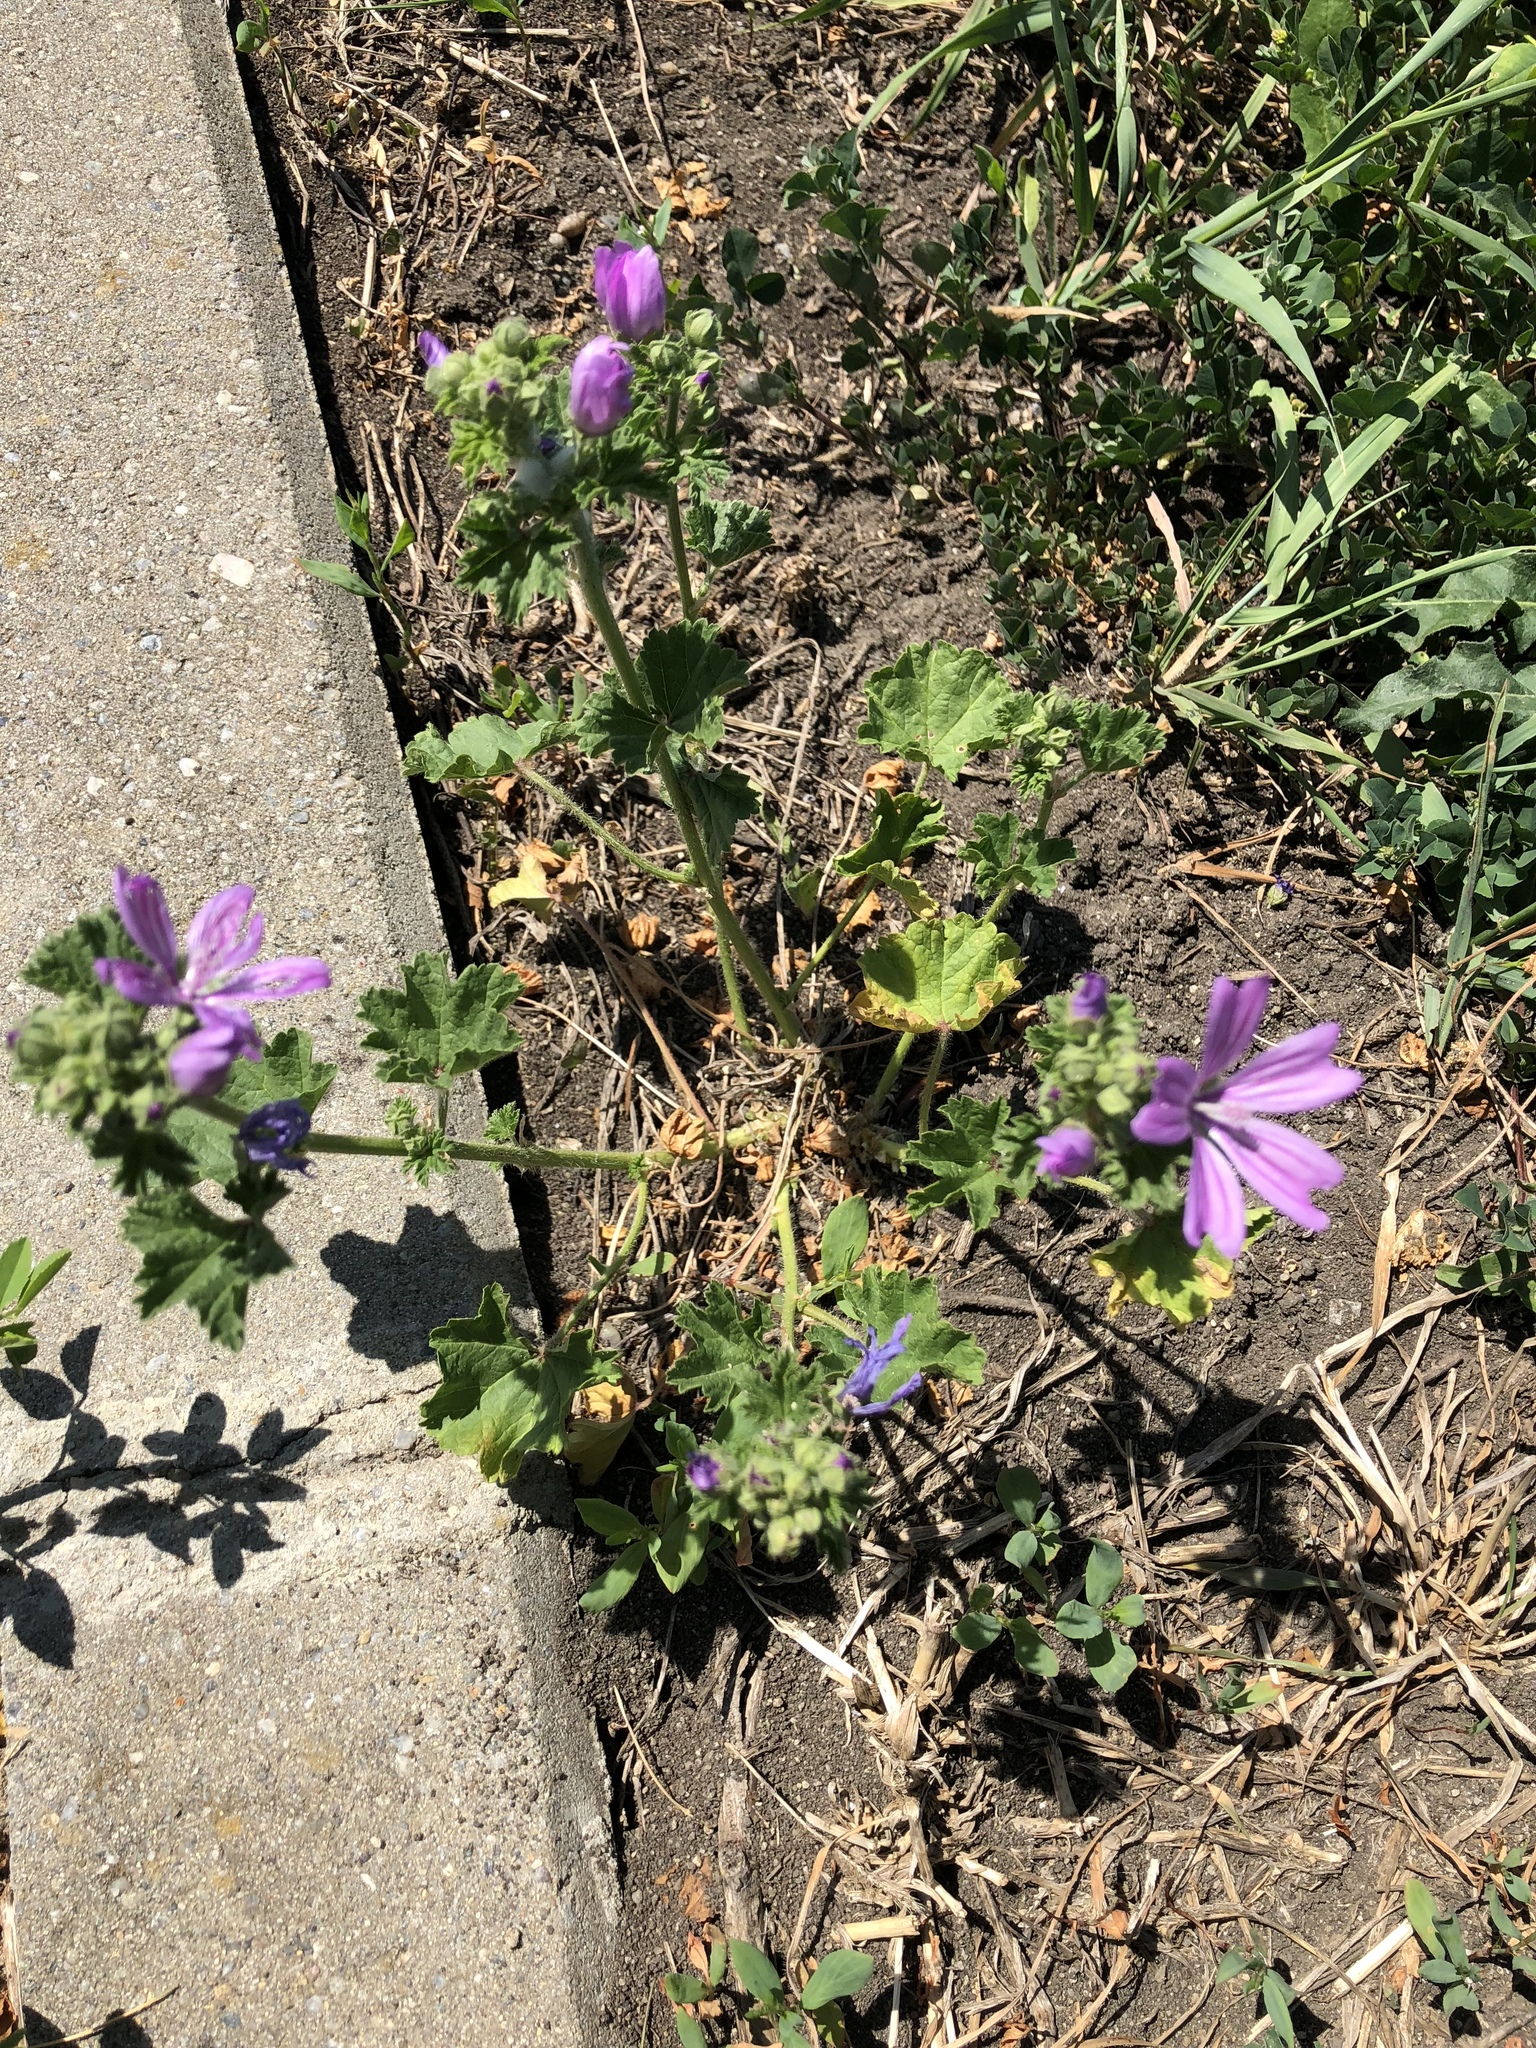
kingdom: Plantae
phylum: Tracheophyta
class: Magnoliopsida
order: Malvales
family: Malvaceae
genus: Malva
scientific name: Malva sylvestris
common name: Common mallow
